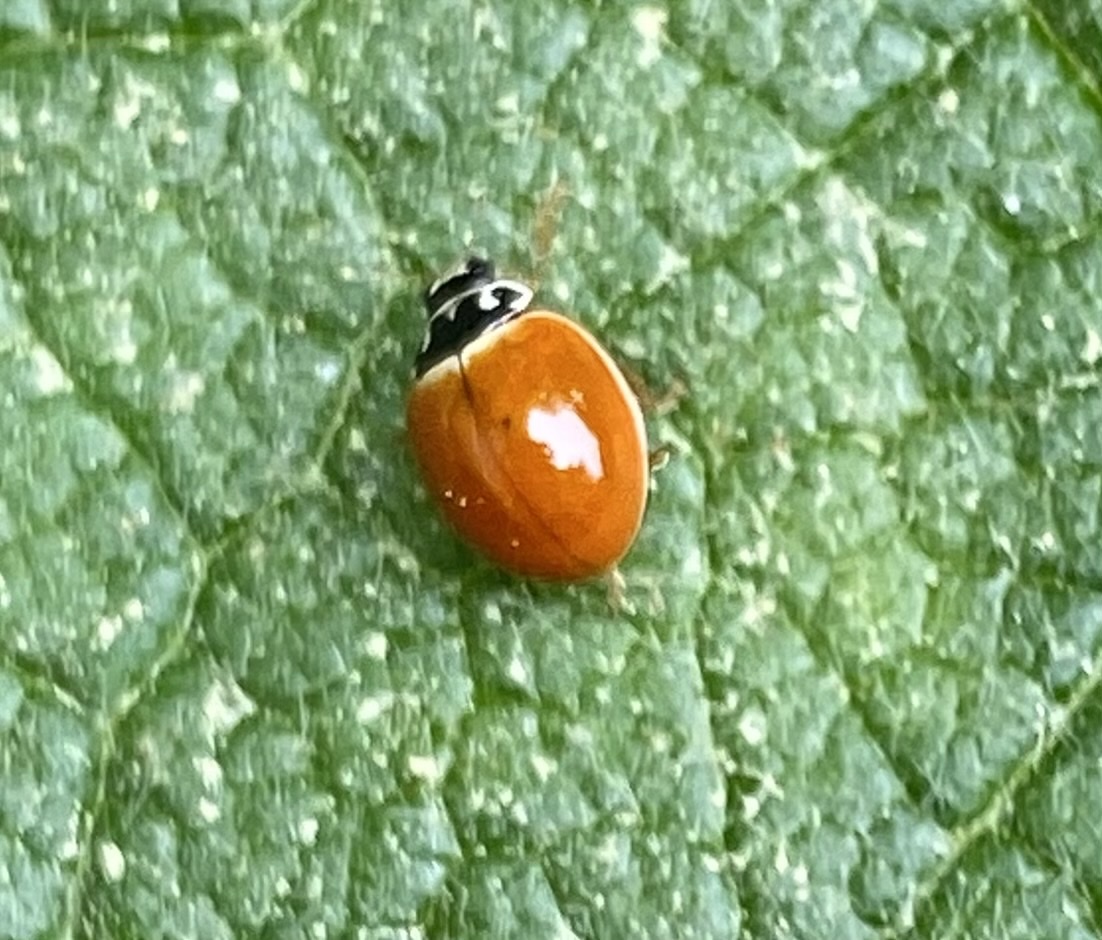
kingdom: Animalia
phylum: Arthropoda
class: Insecta
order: Coleoptera
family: Coccinellidae
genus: Cycloneda
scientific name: Cycloneda munda
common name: Polished lady beetle
